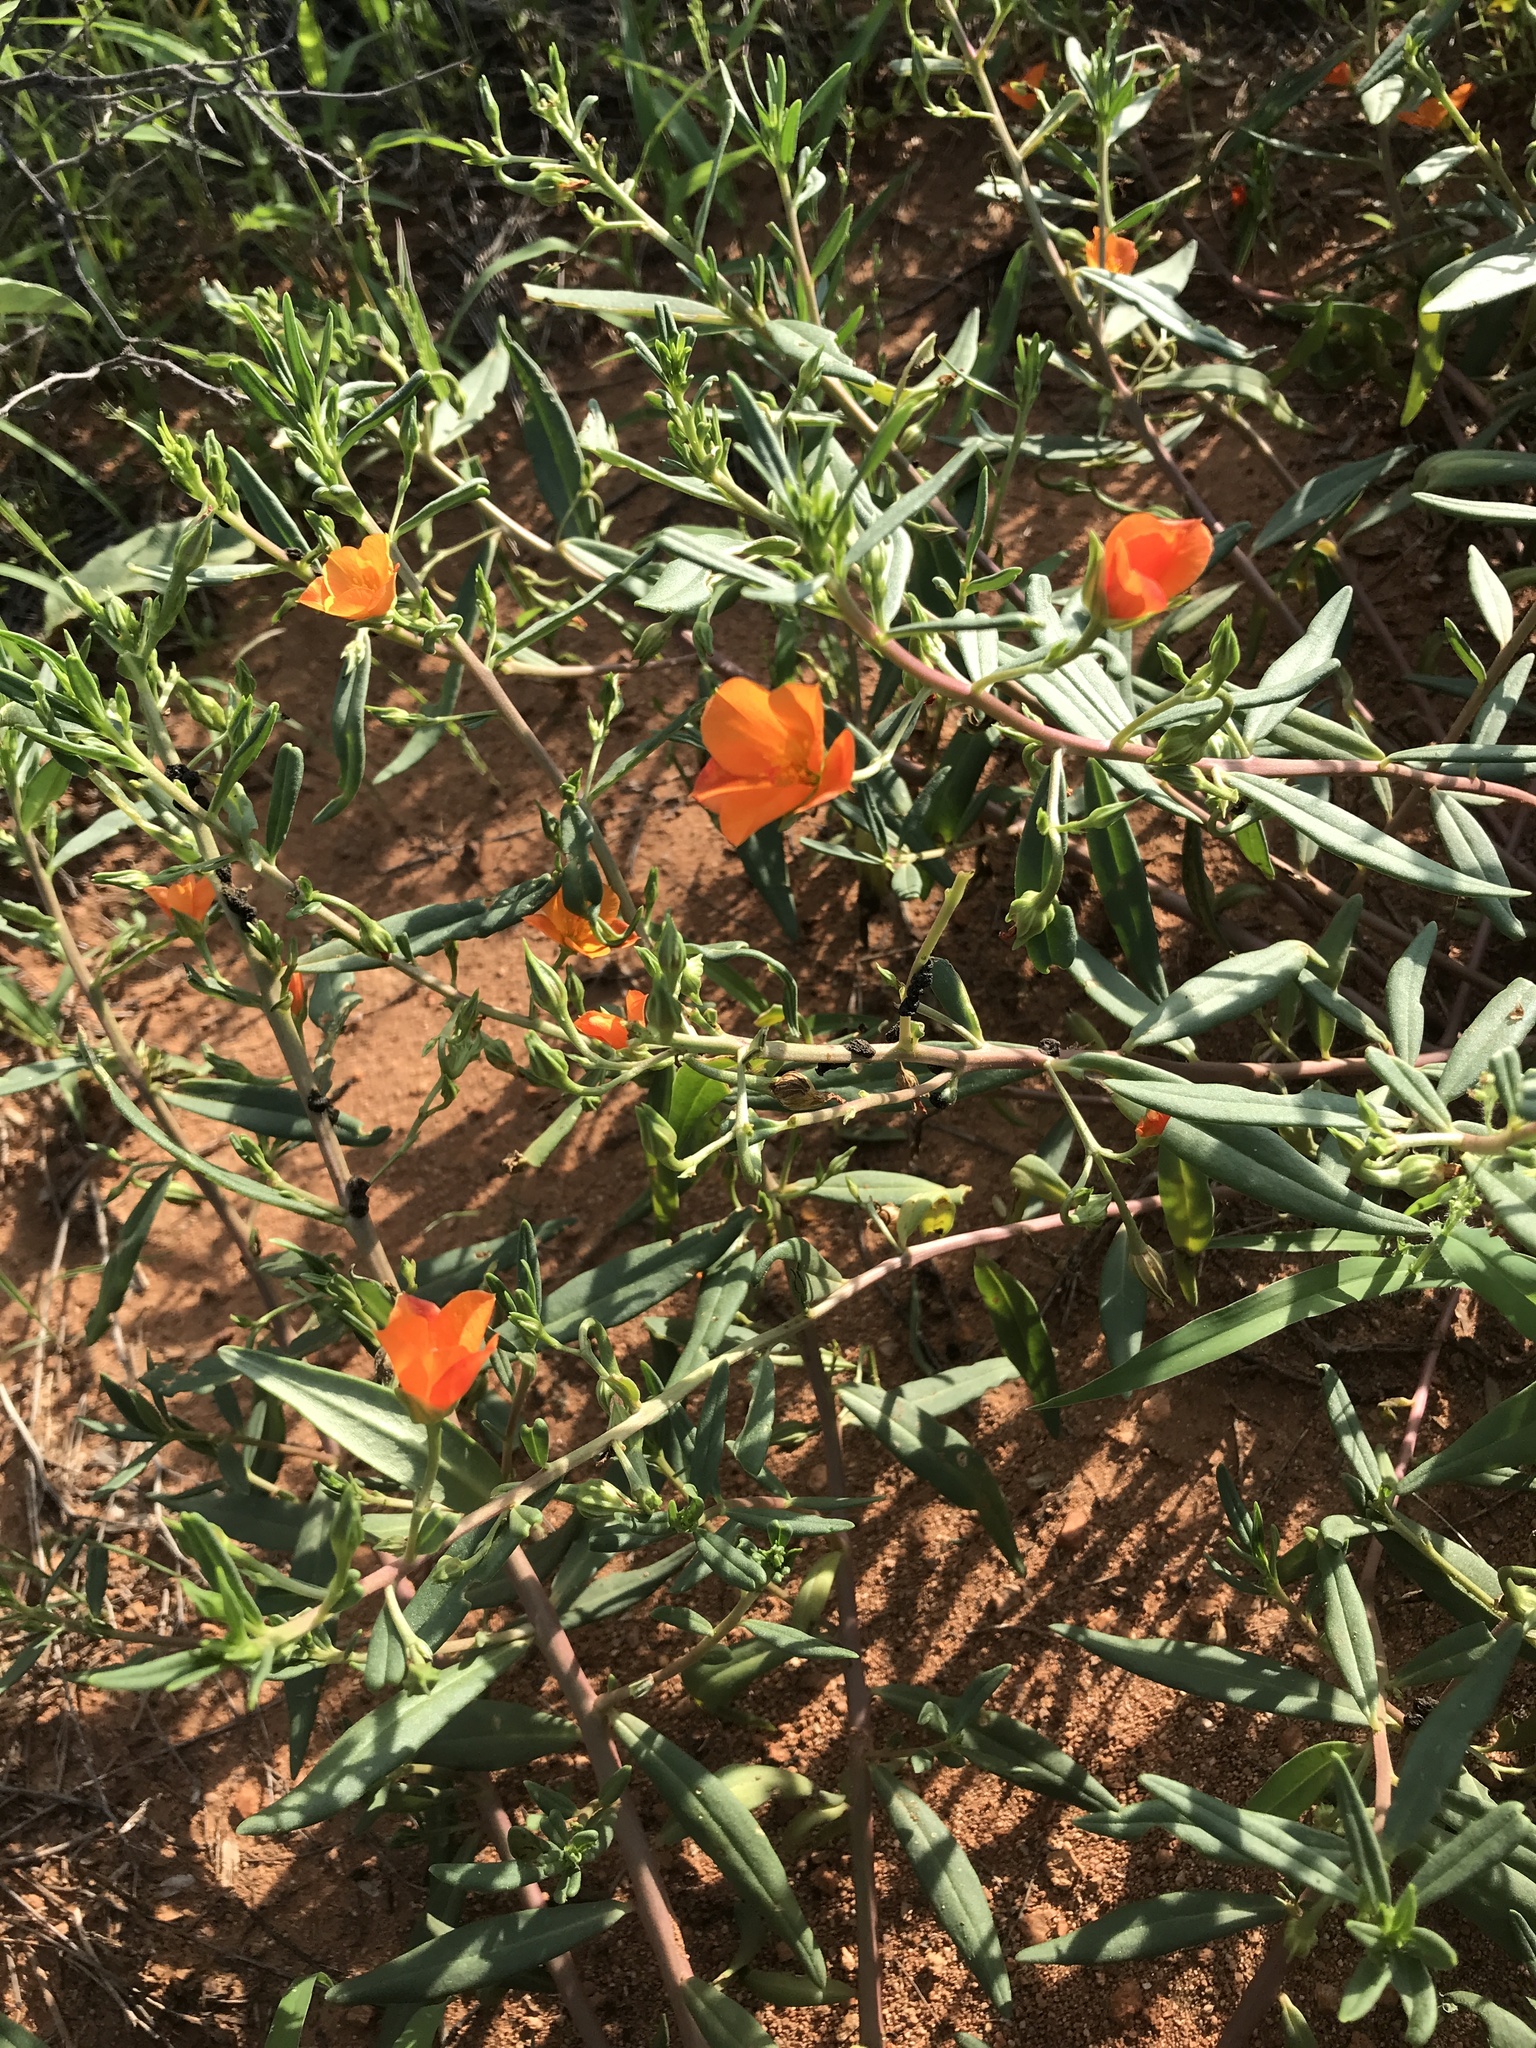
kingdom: Plantae
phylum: Tracheophyta
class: Magnoliopsida
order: Caryophyllales
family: Montiaceae
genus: Phemeranthus
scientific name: Phemeranthus aurantiacus
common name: Orange fameflower
